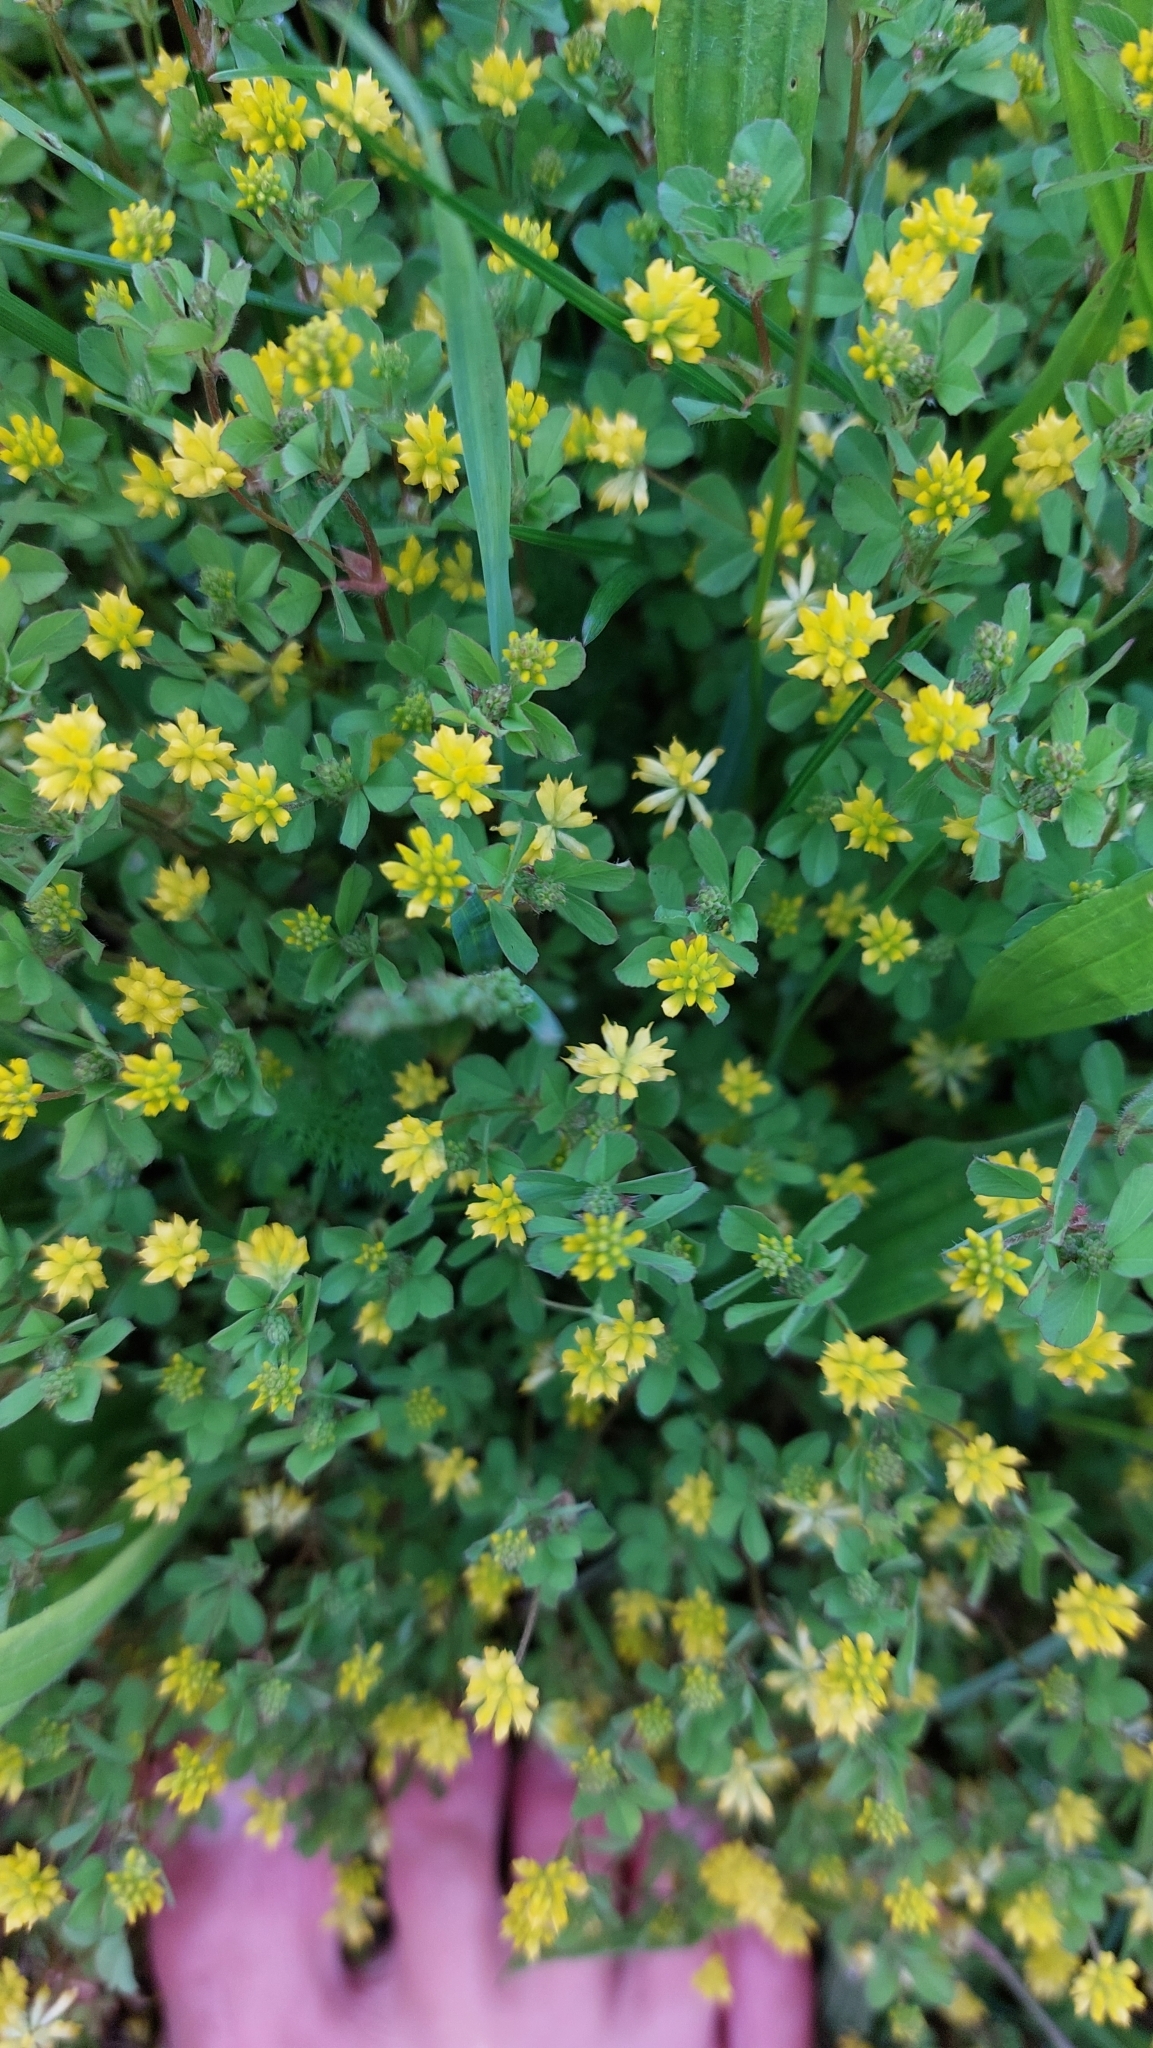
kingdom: Plantae
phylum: Tracheophyta
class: Magnoliopsida
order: Fabales
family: Fabaceae
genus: Trifolium
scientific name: Trifolium dubium
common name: Suckling clover
